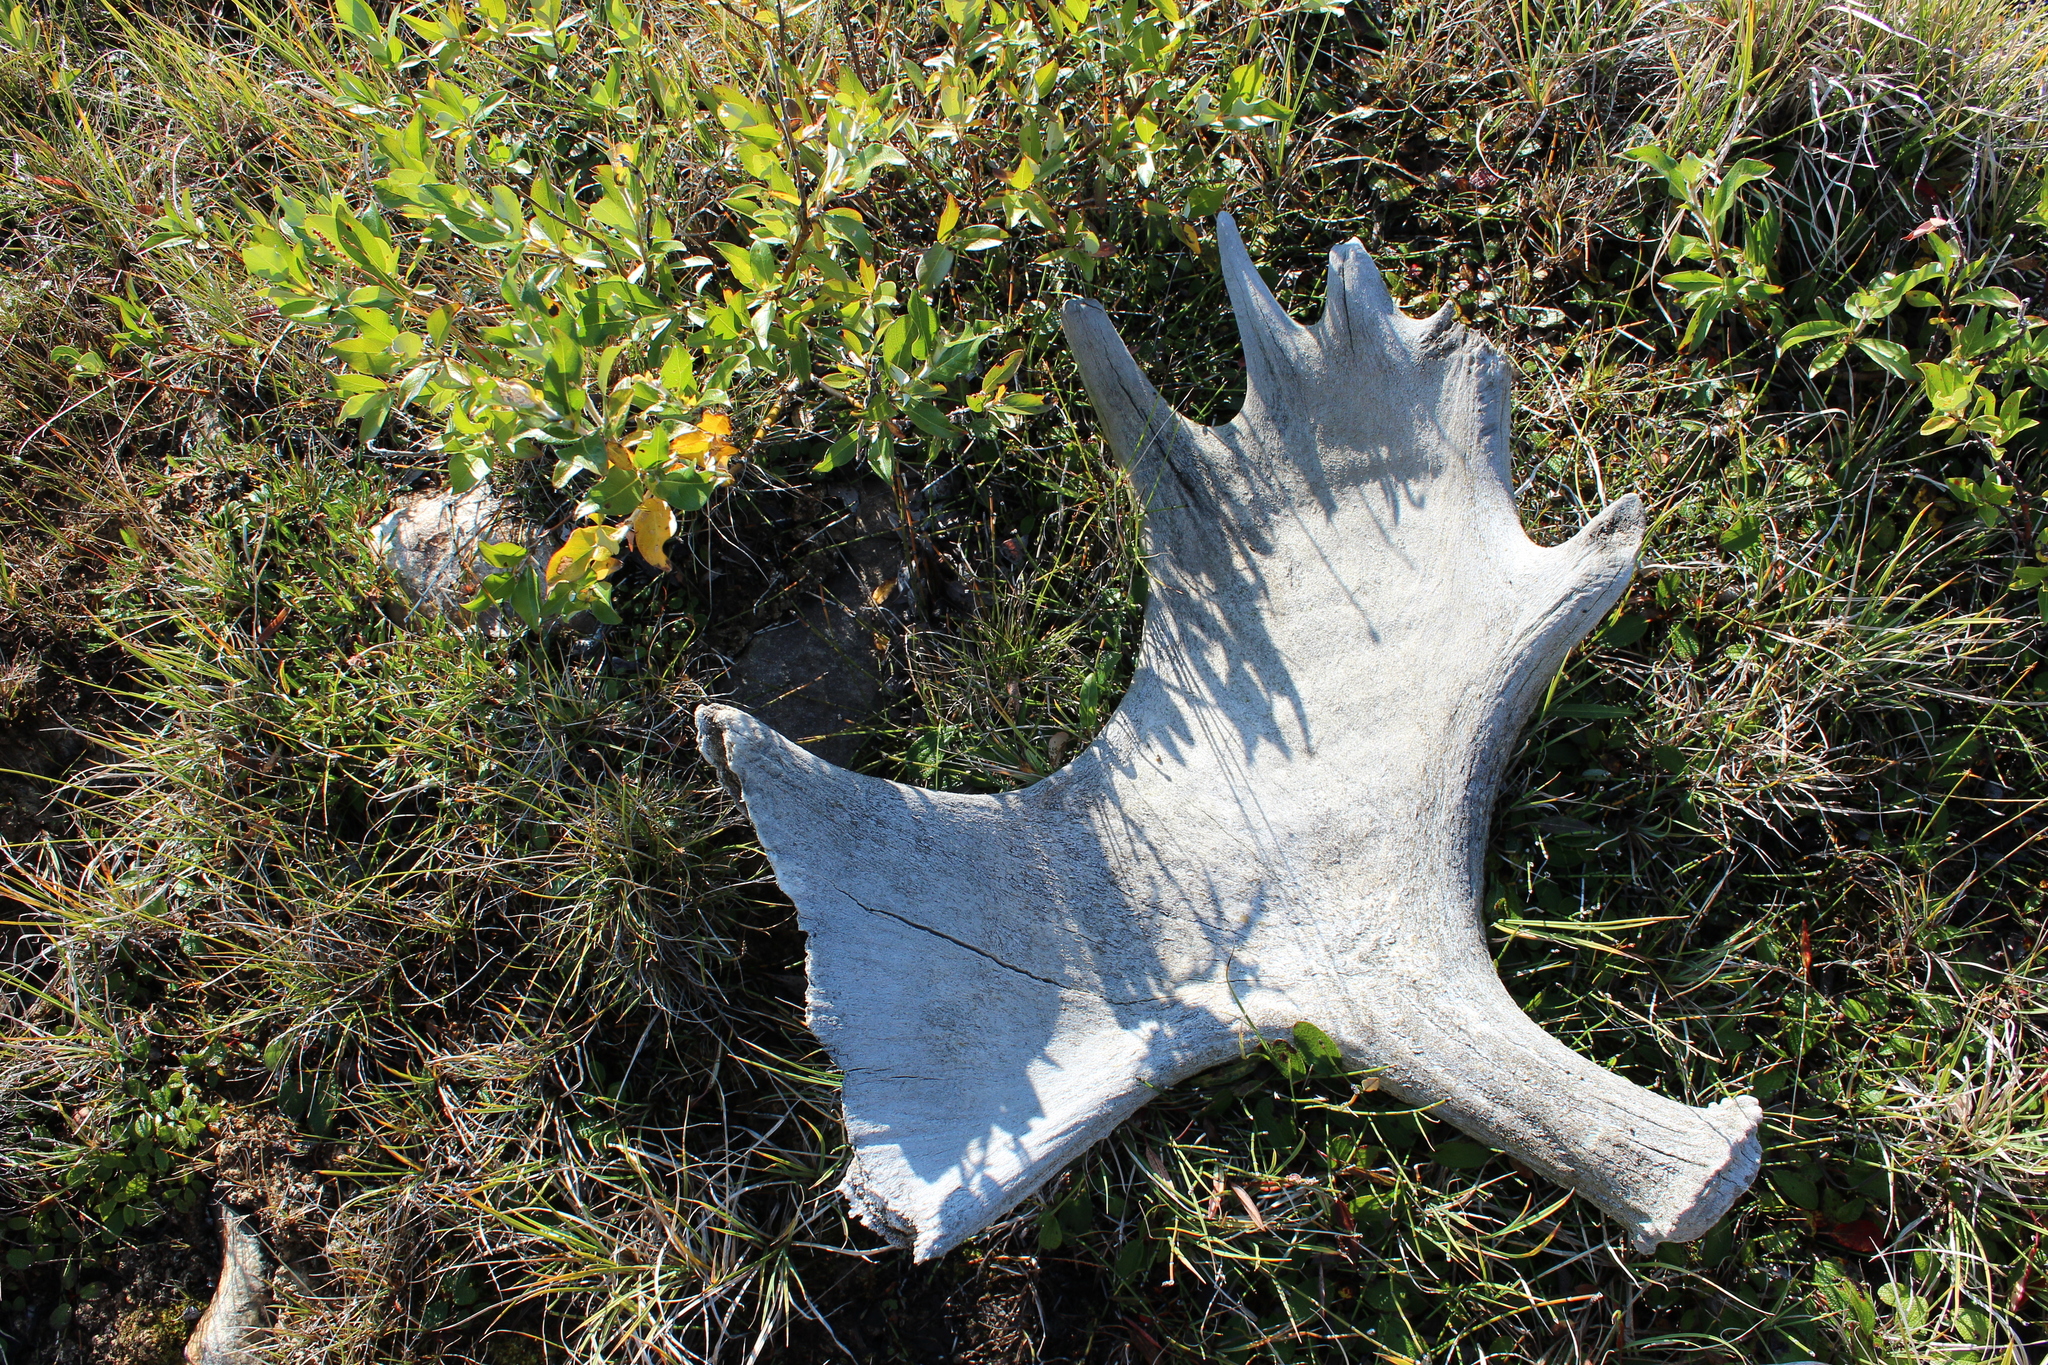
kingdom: Animalia
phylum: Chordata
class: Mammalia
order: Artiodactyla
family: Cervidae
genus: Alces
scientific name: Alces alces
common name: Moose
